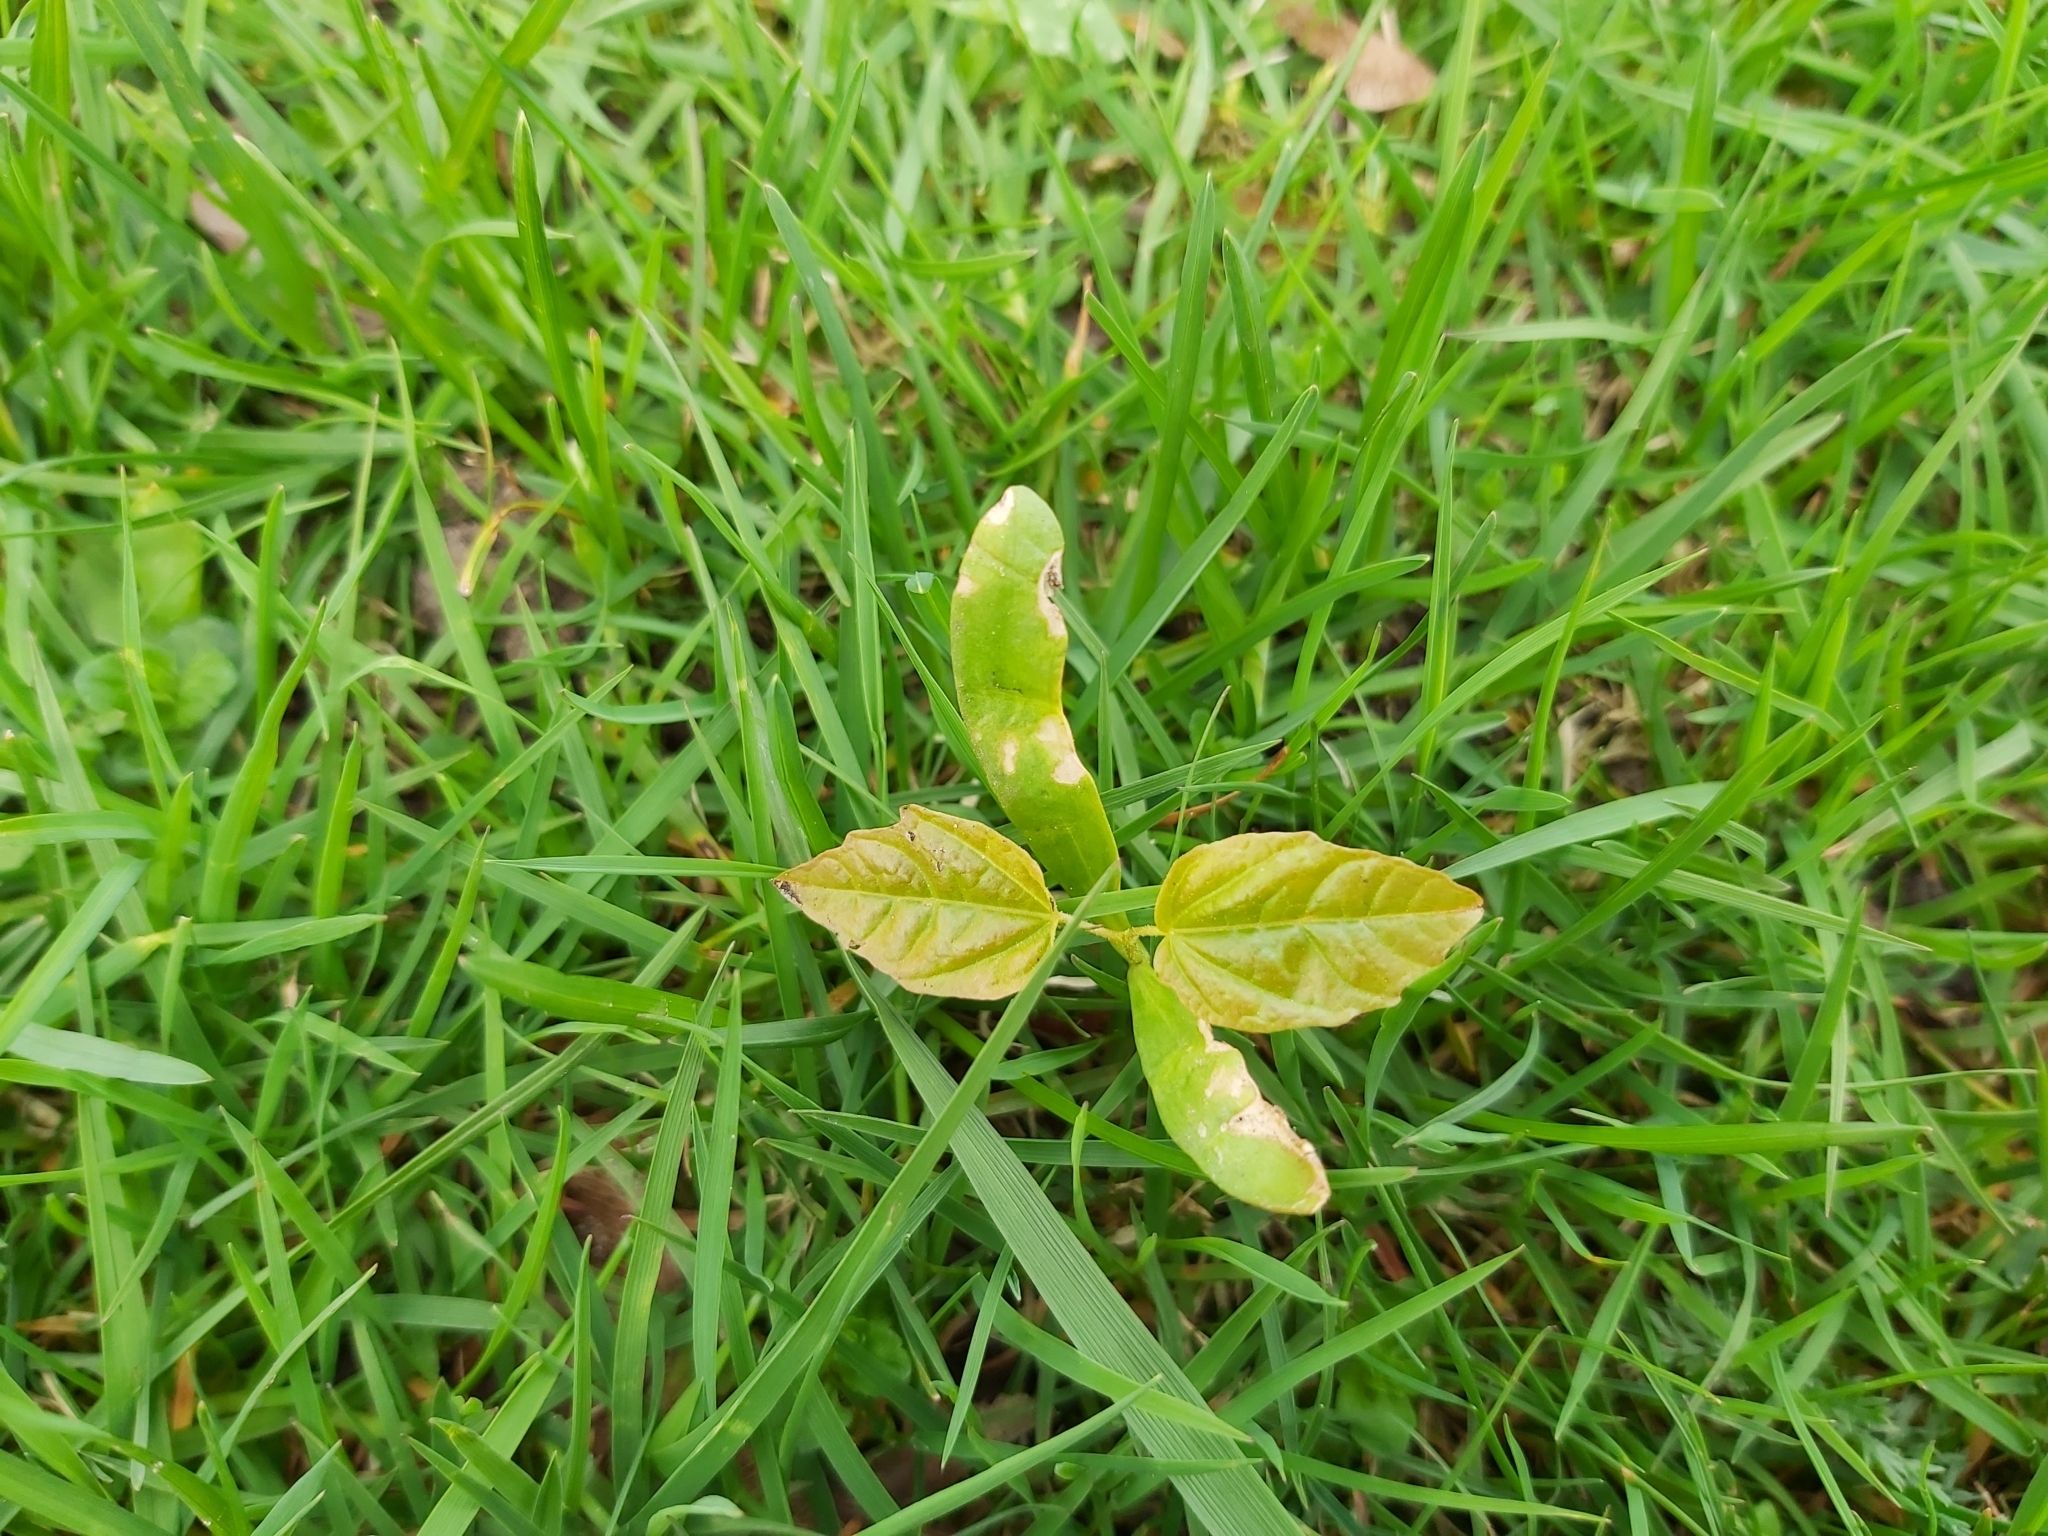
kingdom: Plantae
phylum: Tracheophyta
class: Magnoliopsida
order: Sapindales
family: Sapindaceae
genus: Acer
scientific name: Acer platanoides
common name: Norway maple
